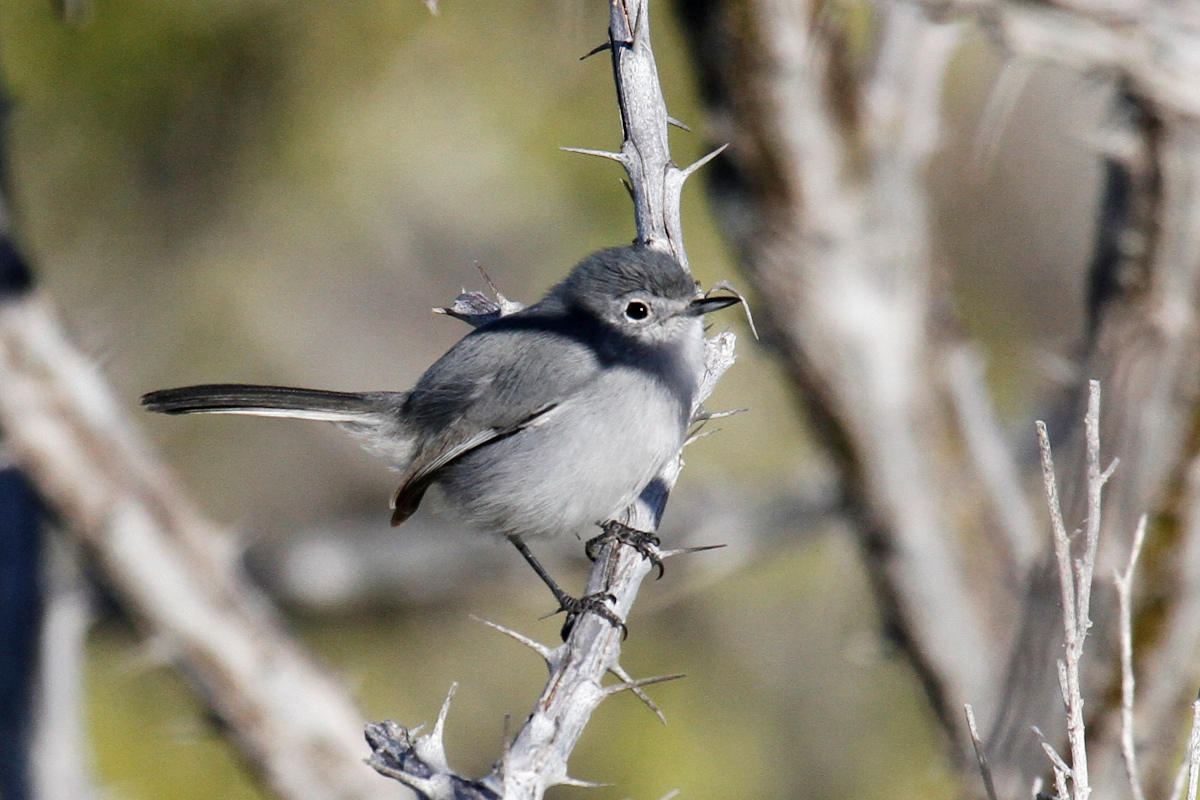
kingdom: Animalia
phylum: Chordata
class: Aves
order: Passeriformes
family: Polioptilidae
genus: Polioptila
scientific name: Polioptila californica
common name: California gnatcatcher
